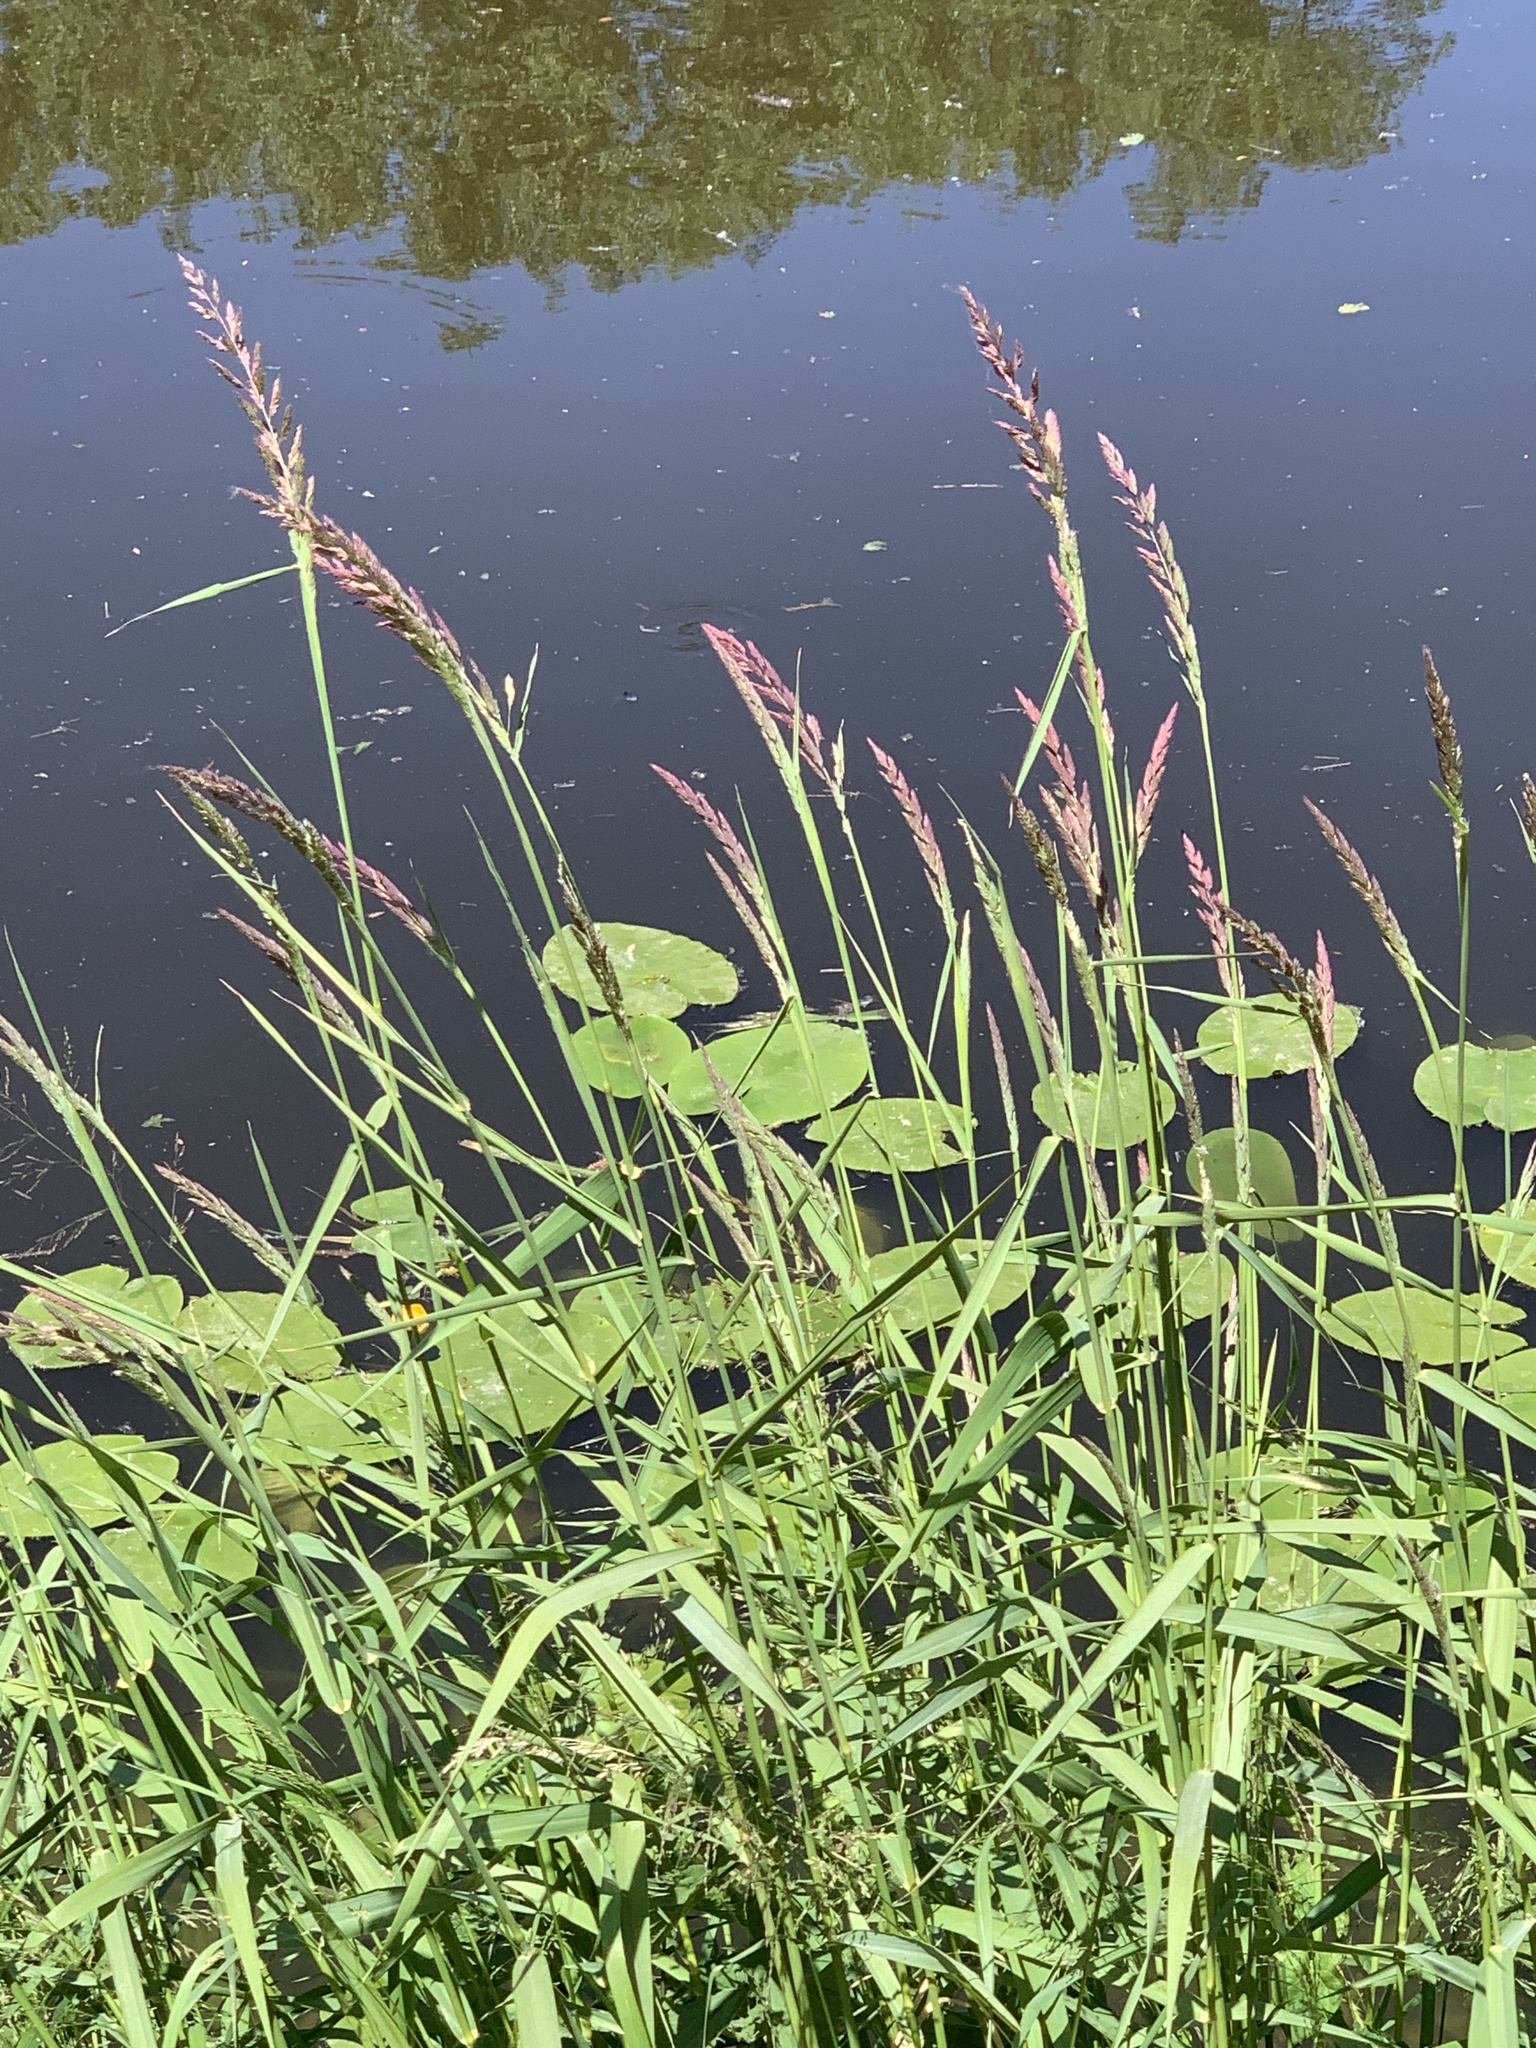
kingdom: Plantae
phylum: Tracheophyta
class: Liliopsida
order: Poales
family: Poaceae
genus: Phalaris
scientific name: Phalaris arundinacea
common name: Reed canary-grass
